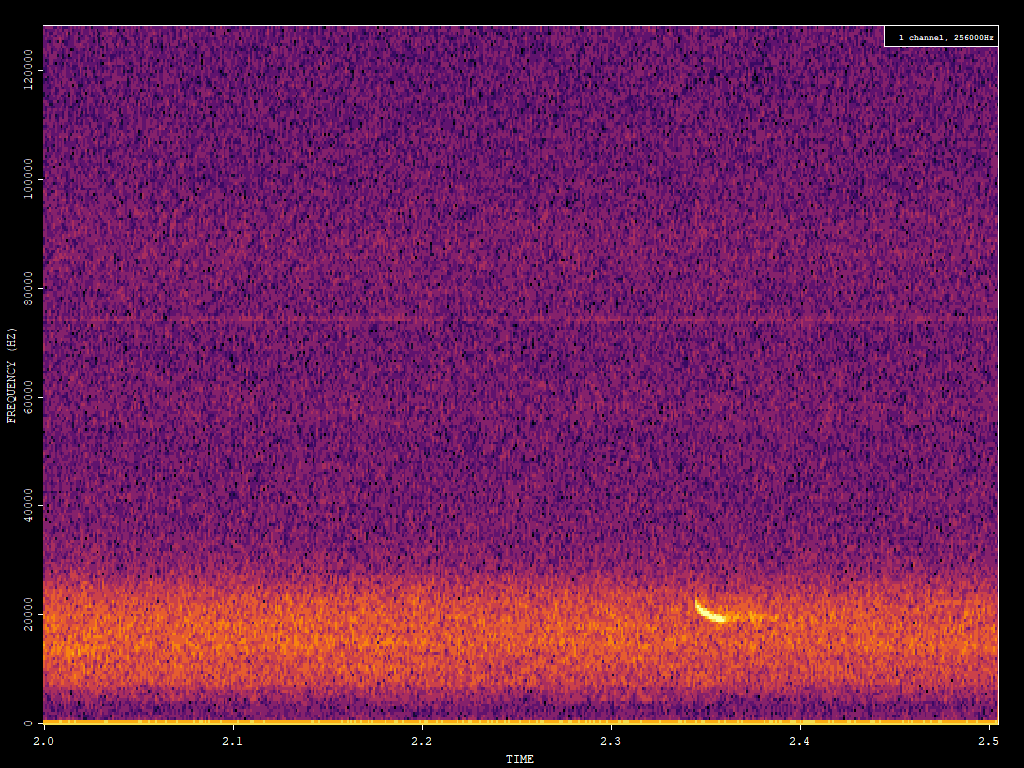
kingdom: Animalia
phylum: Chordata
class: Mammalia
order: Chiroptera
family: Vespertilionidae
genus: Nyctalus
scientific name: Nyctalus noctula
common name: Noctule
